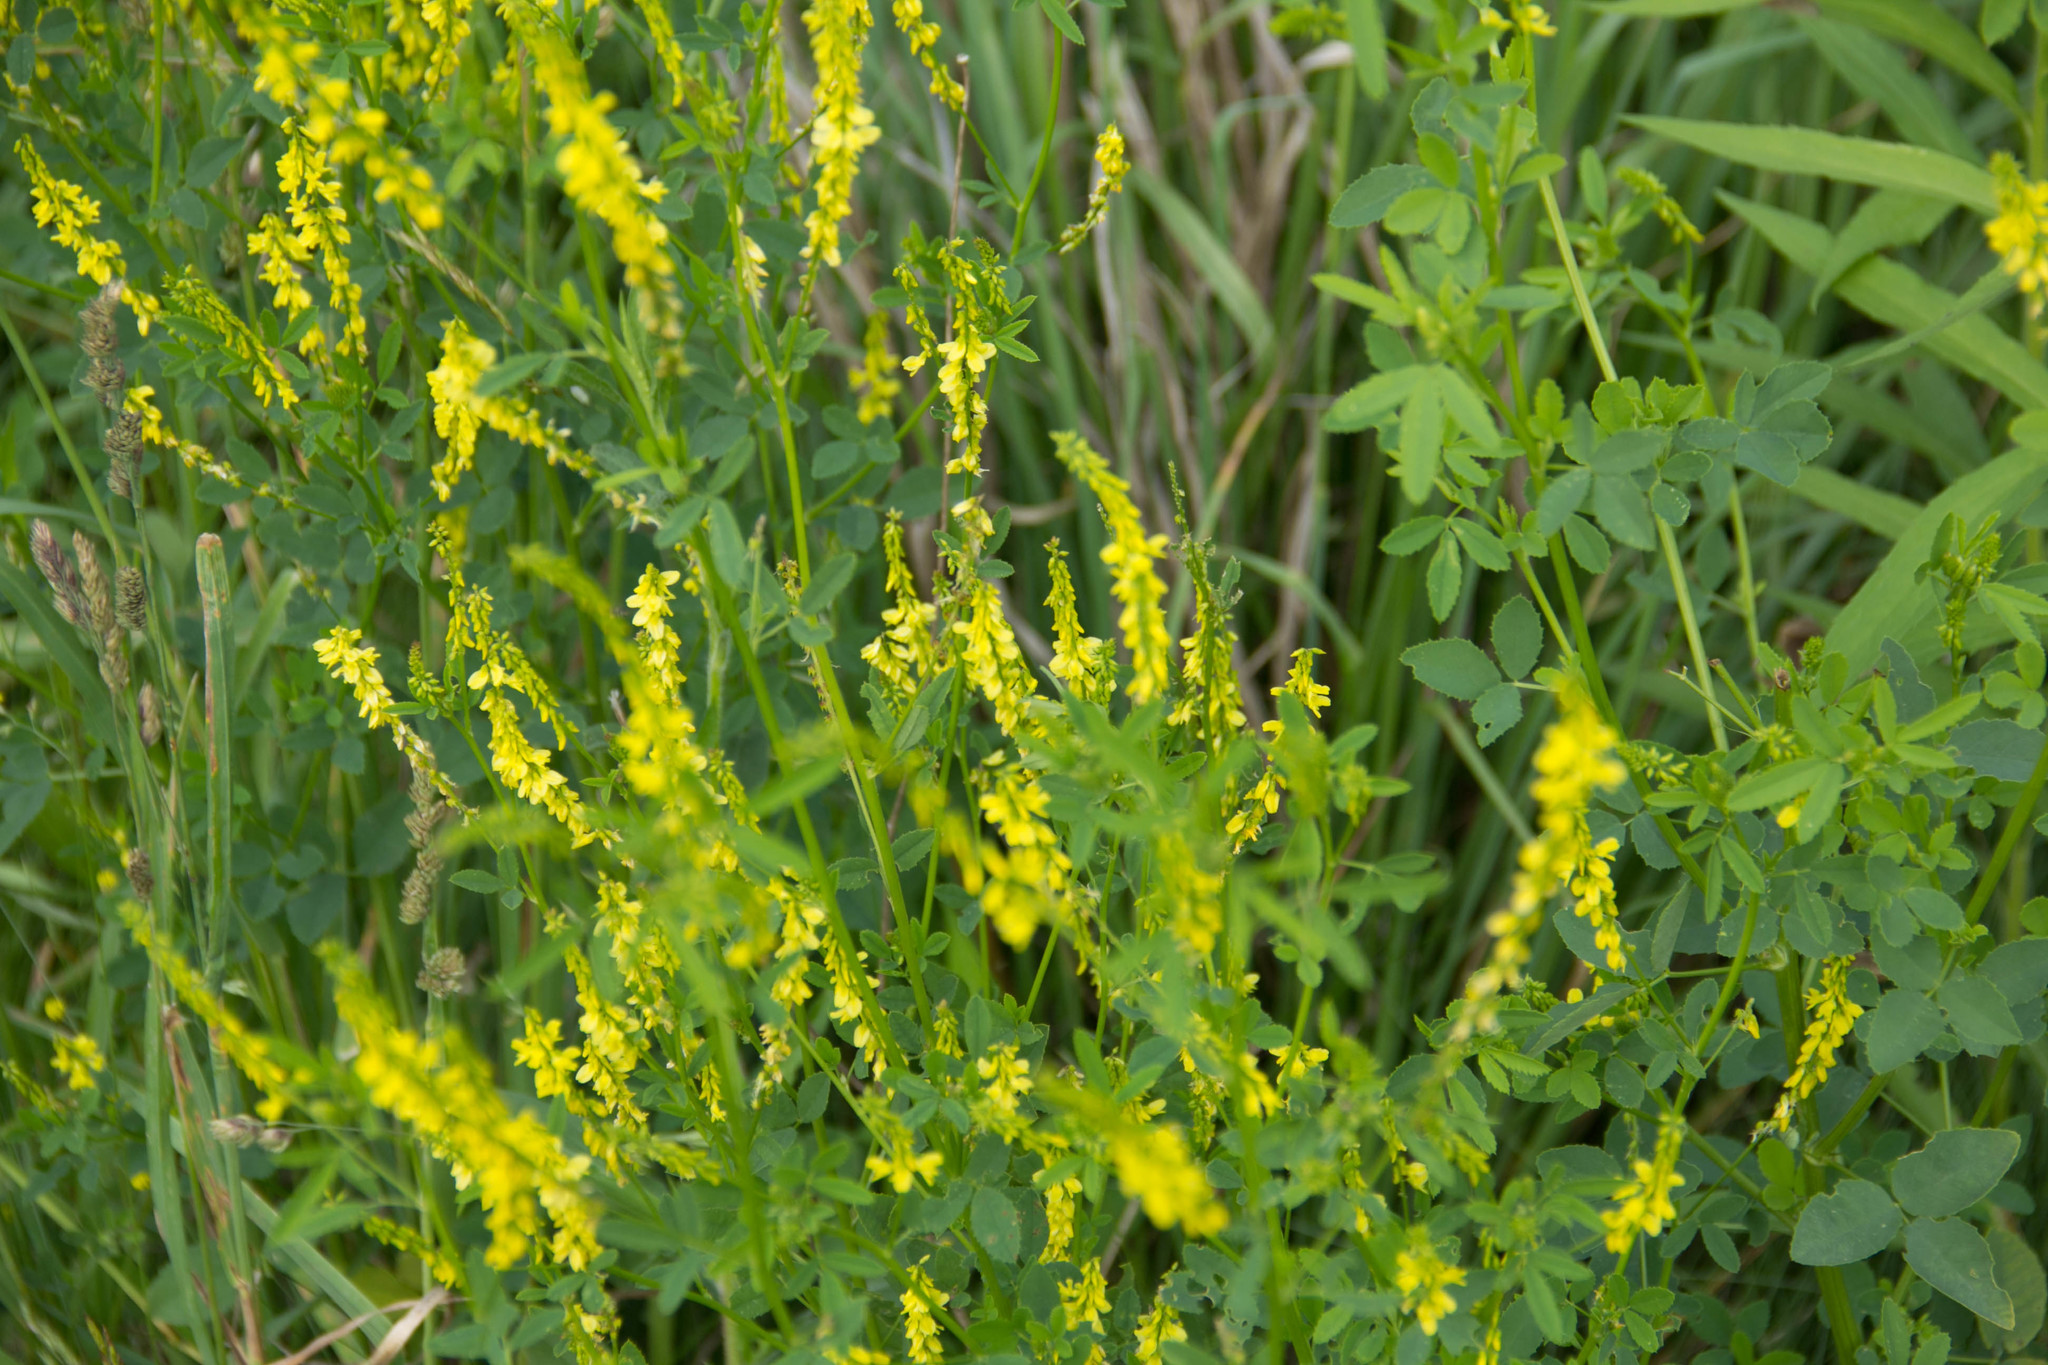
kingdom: Plantae
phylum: Tracheophyta
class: Magnoliopsida
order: Fabales
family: Fabaceae
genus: Melilotus
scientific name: Melilotus officinalis
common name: Sweetclover
